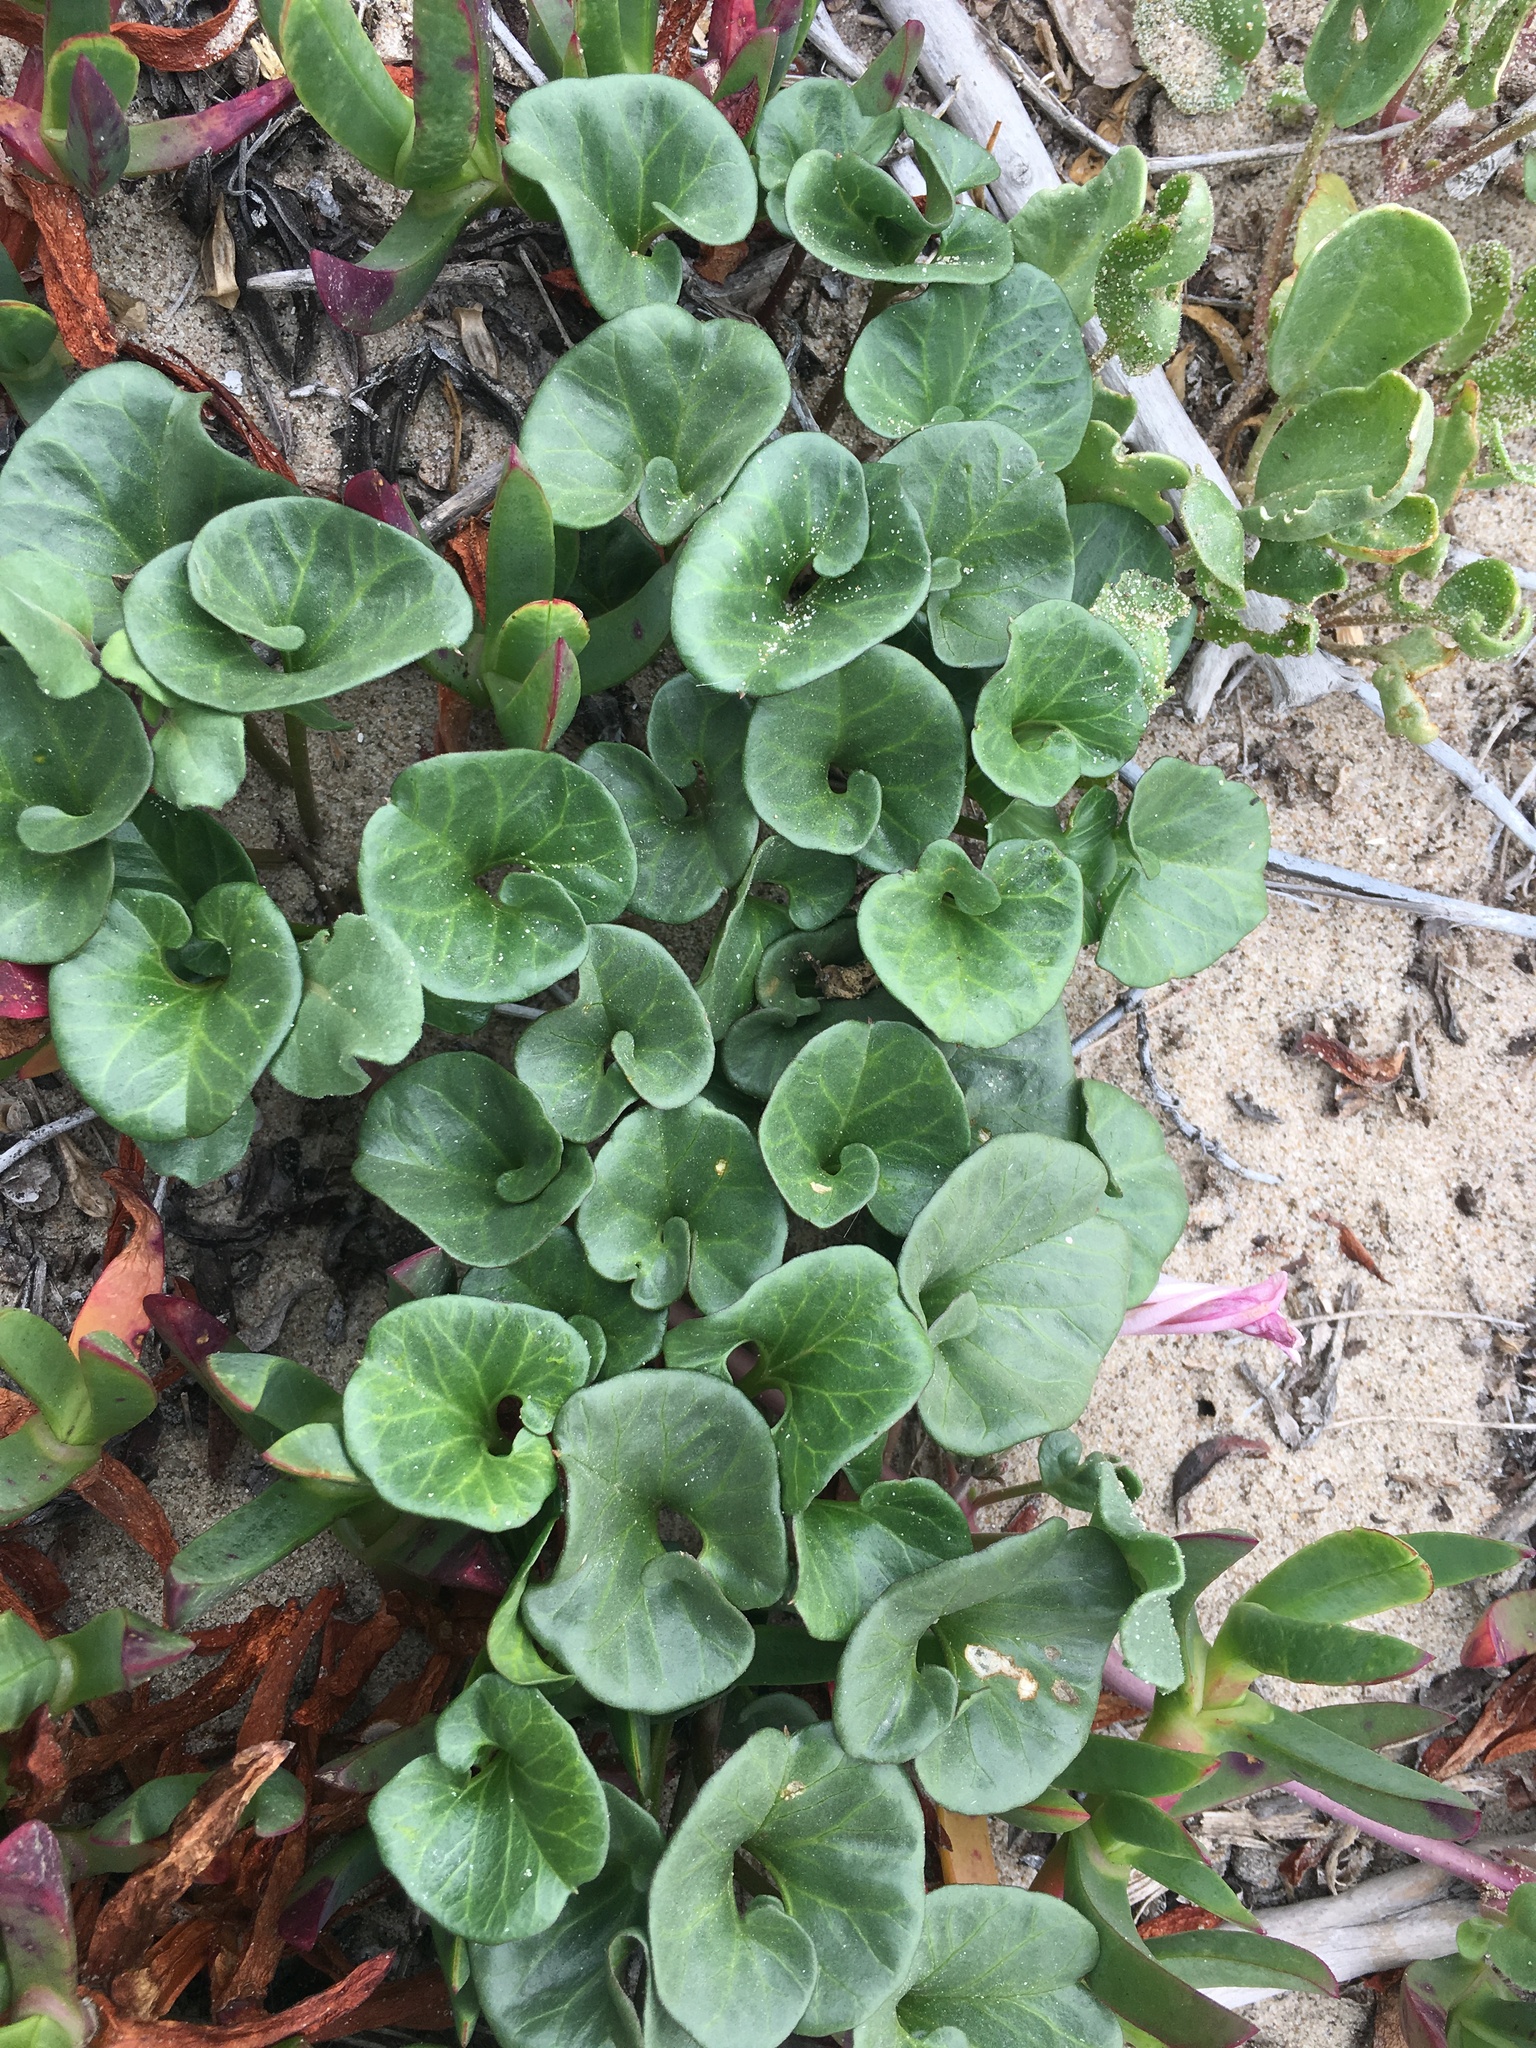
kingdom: Plantae
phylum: Tracheophyta
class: Magnoliopsida
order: Solanales
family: Convolvulaceae
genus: Calystegia
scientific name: Calystegia soldanella
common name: Sea bindweed
